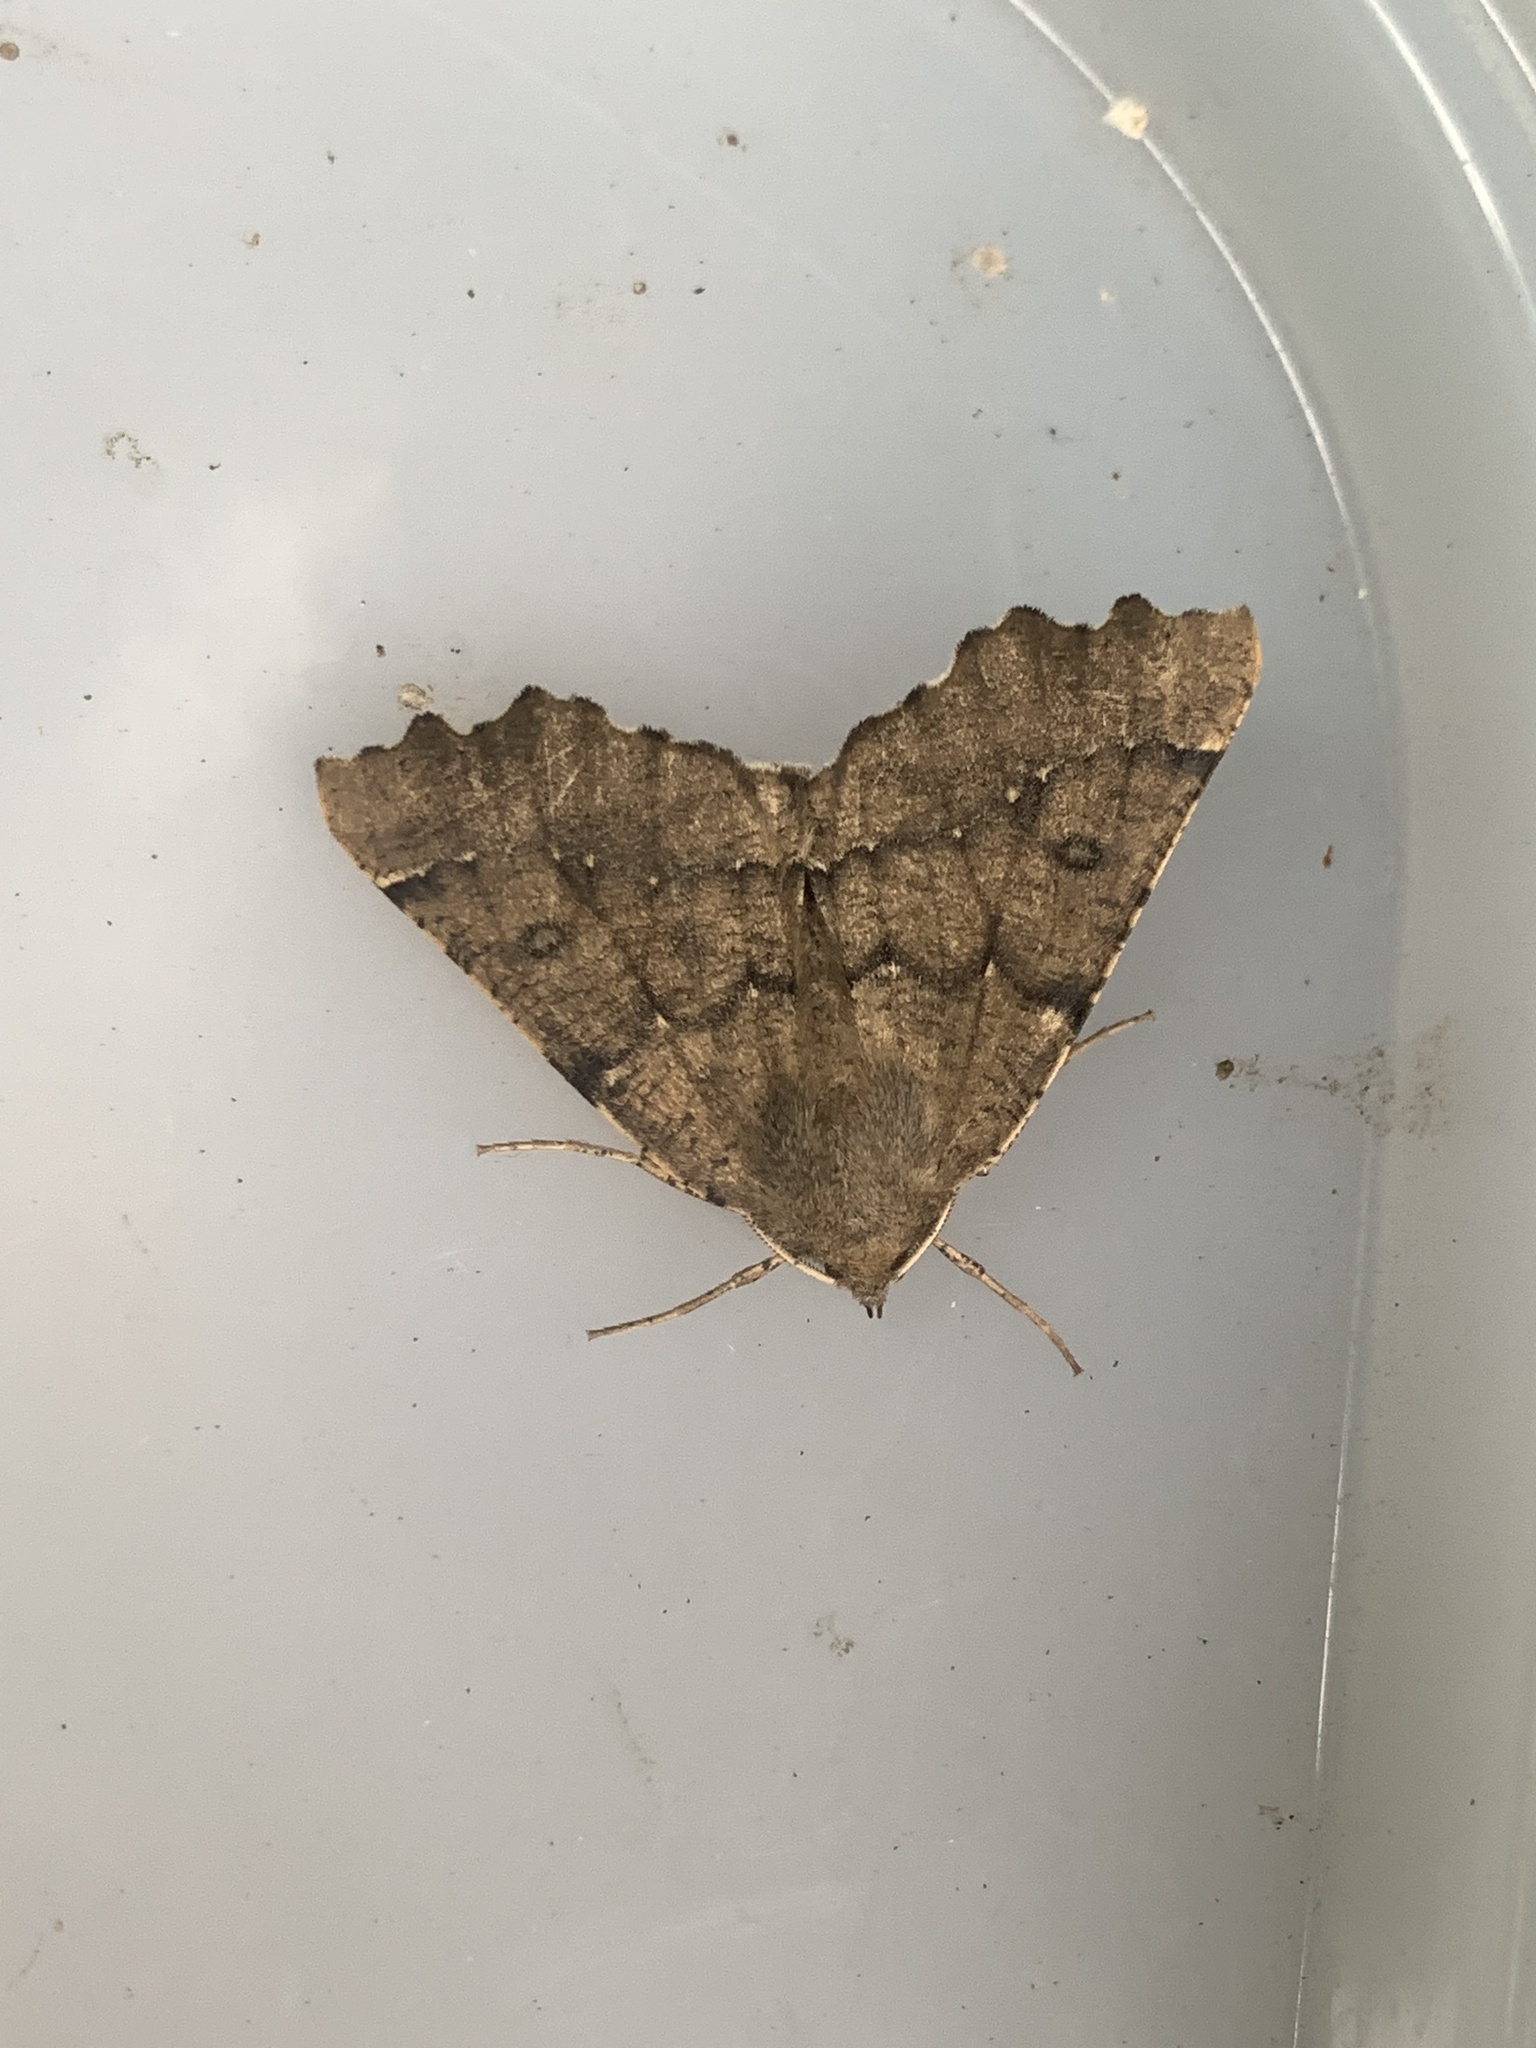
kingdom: Animalia
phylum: Arthropoda
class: Insecta
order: Lepidoptera
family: Geometridae
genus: Odontopera
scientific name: Odontopera bidentata
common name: Scalloped hazel
